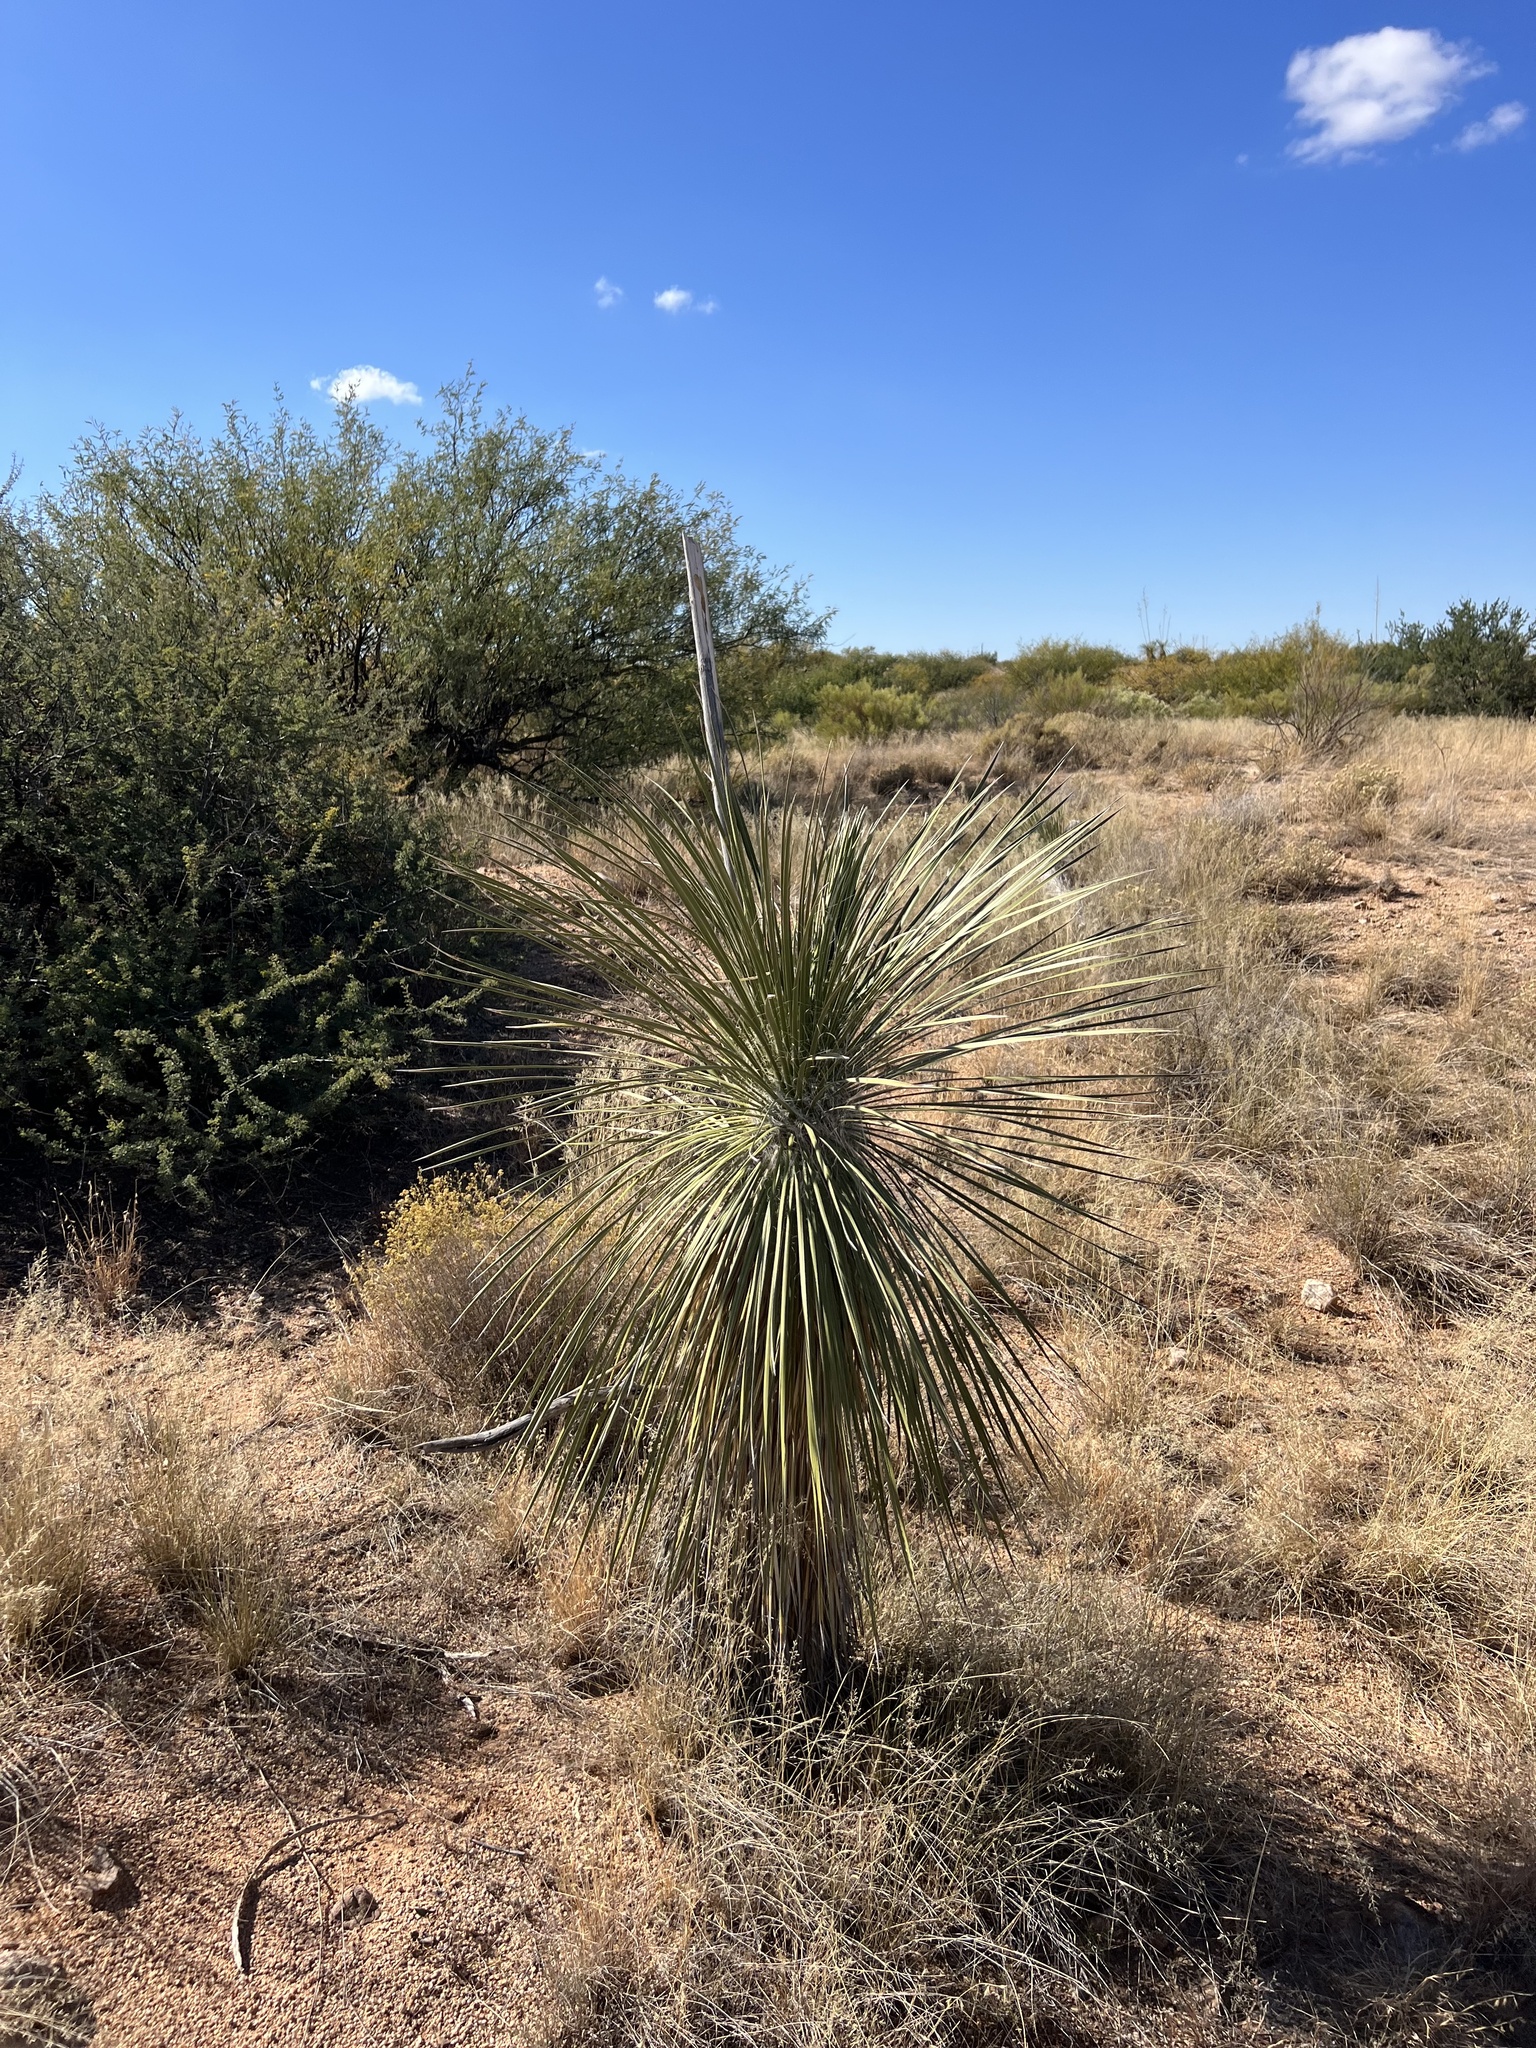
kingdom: Plantae
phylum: Tracheophyta
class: Liliopsida
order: Asparagales
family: Asparagaceae
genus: Yucca
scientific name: Yucca elata
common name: Palmella
